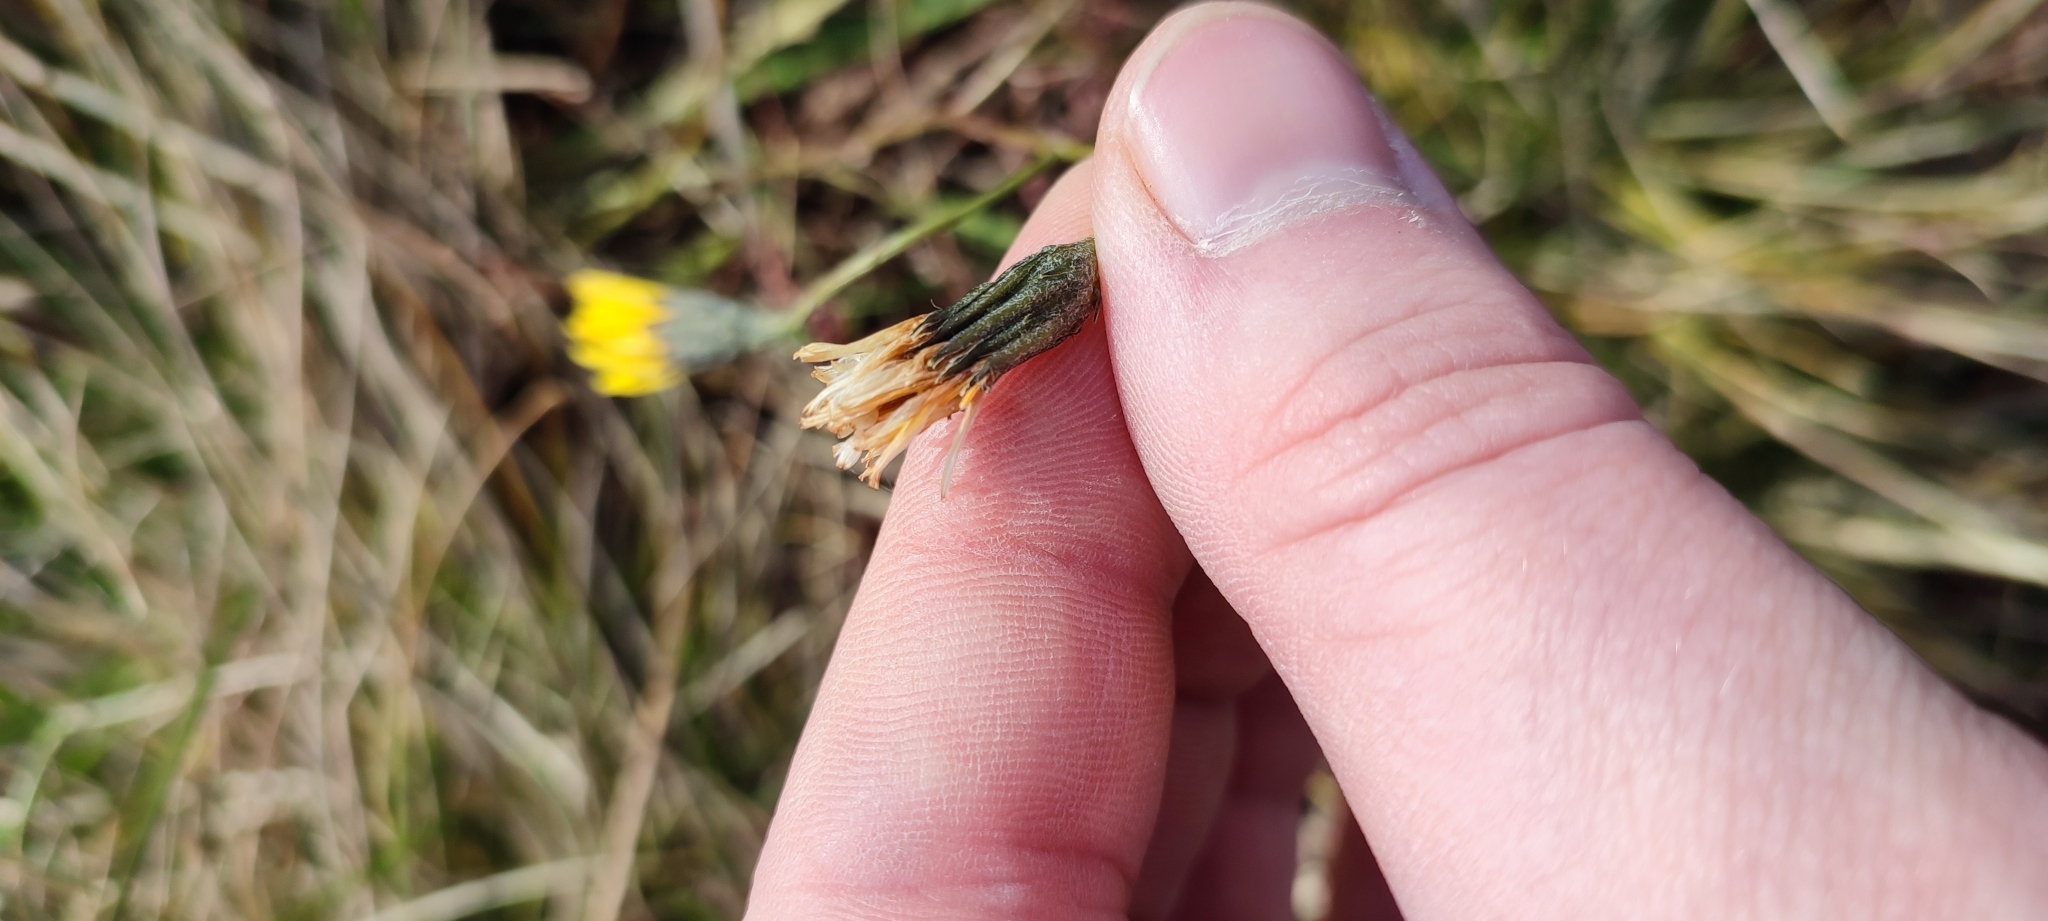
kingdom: Plantae
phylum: Tracheophyta
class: Magnoliopsida
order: Asterales
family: Asteraceae
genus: Scorzoneroides
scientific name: Scorzoneroides autumnalis
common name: Autumn hawkbit
